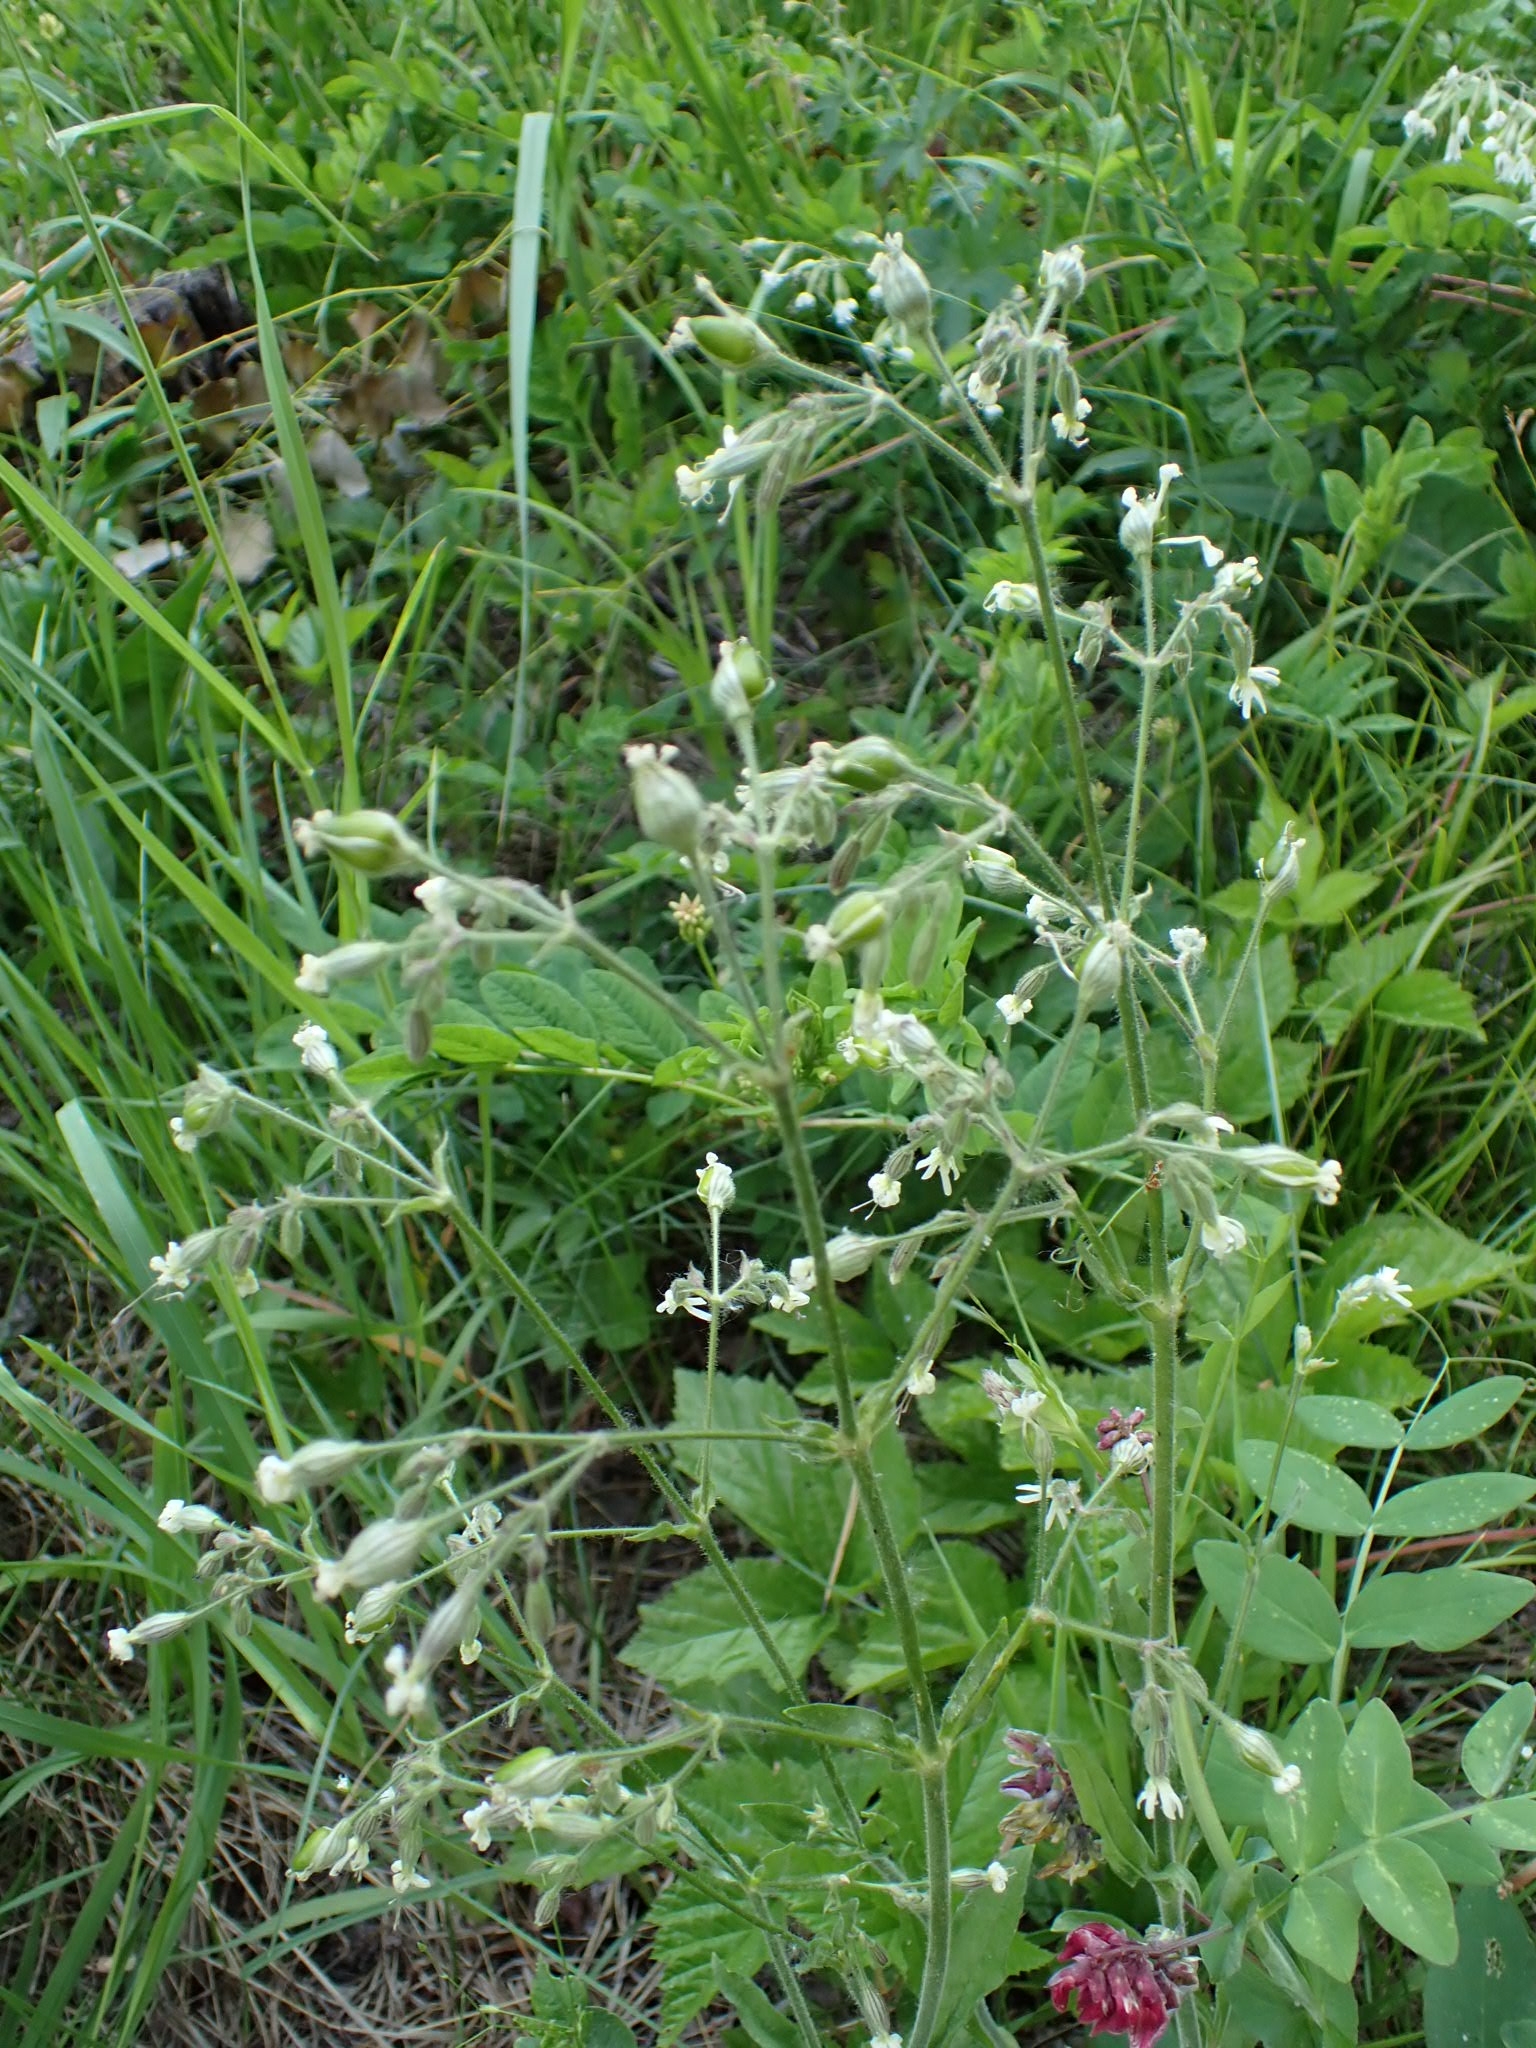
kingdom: Plantae
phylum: Tracheophyta
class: Magnoliopsida
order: Caryophyllales
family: Caryophyllaceae
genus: Silene
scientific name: Silene nutans
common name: Nottingham catchfly
